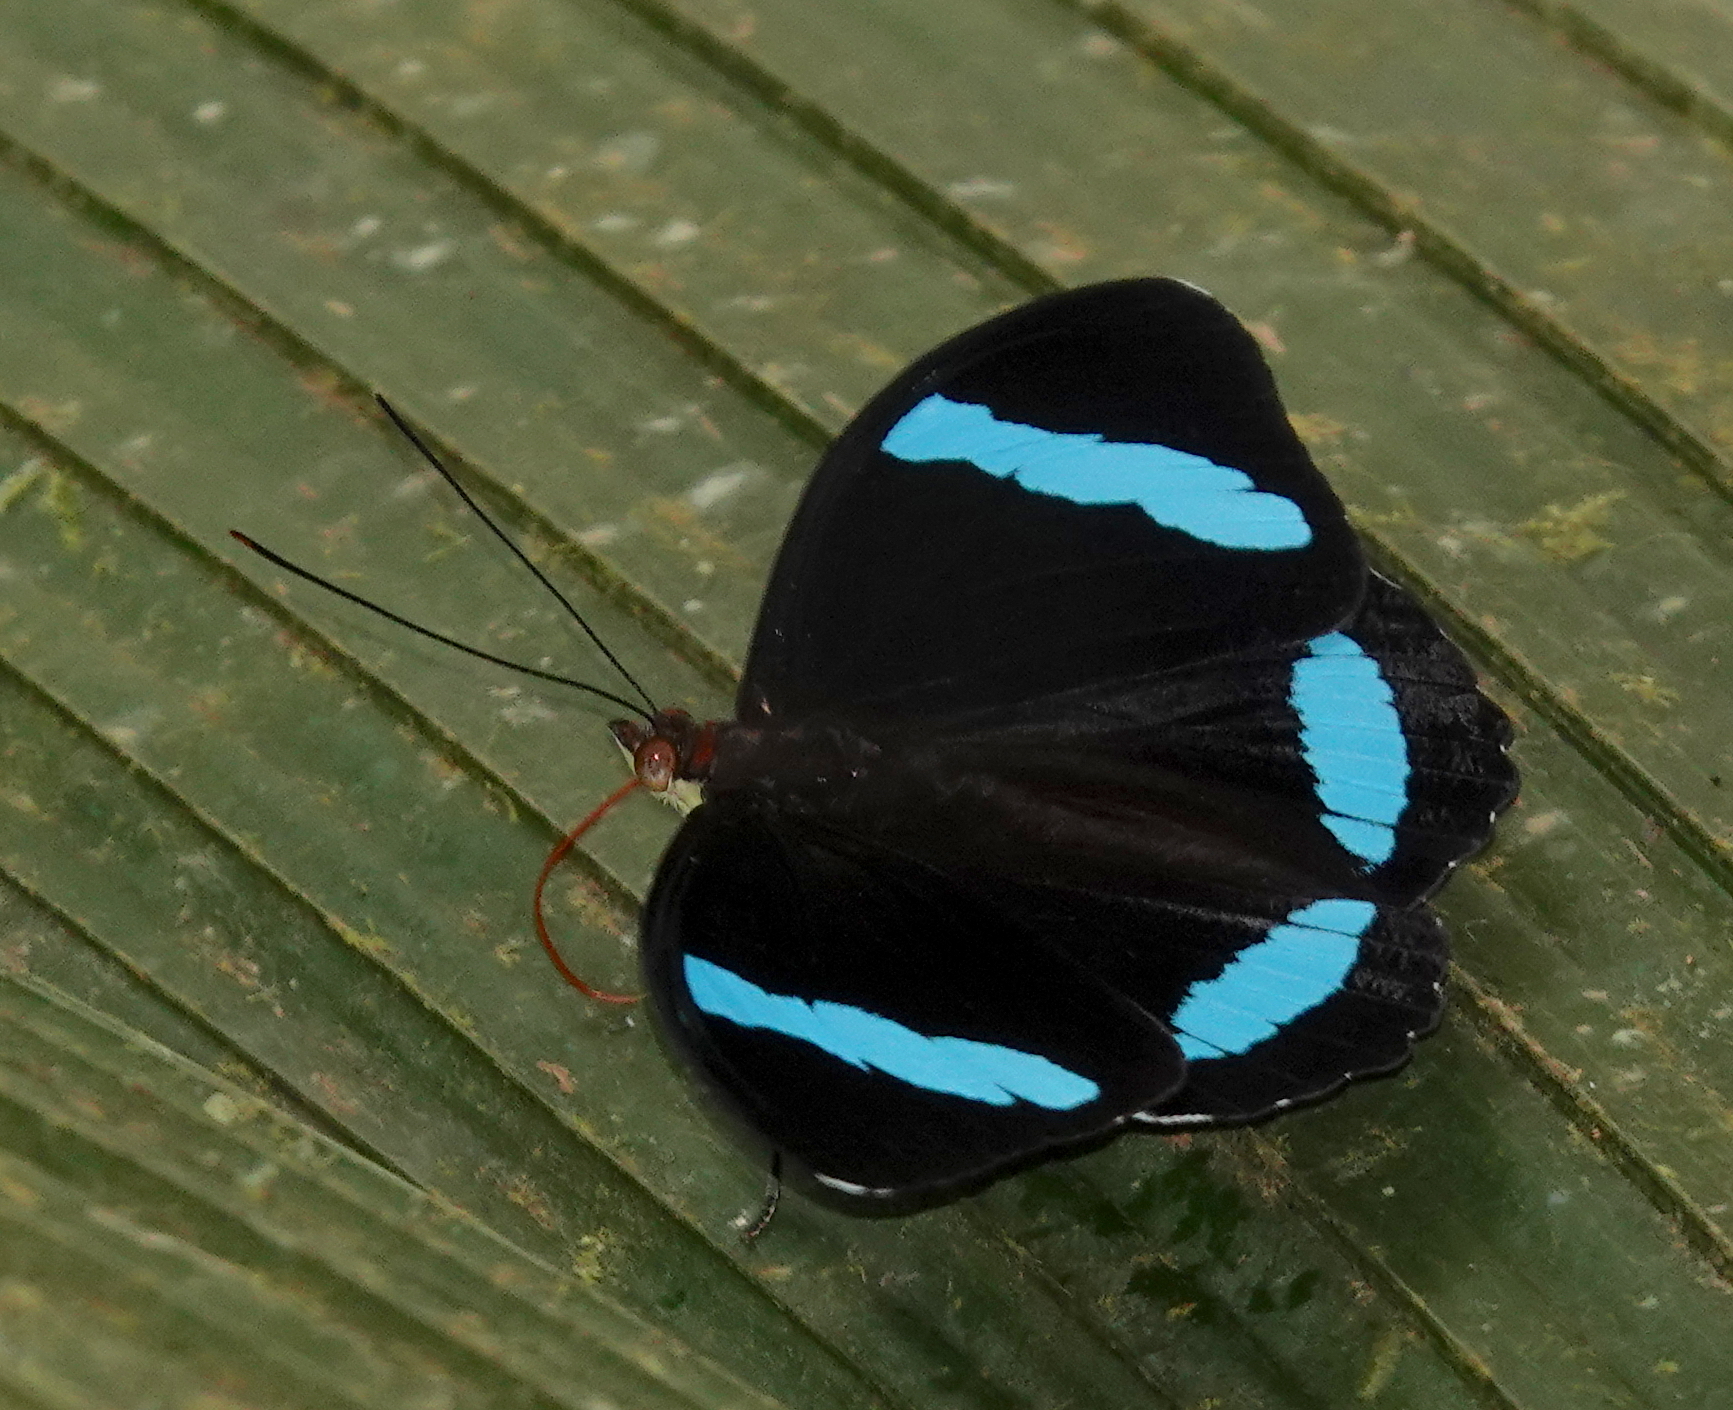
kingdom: Animalia
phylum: Arthropoda
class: Insecta
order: Lepidoptera
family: Nymphalidae
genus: Nessaea
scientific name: Nessaea hewitsonii
